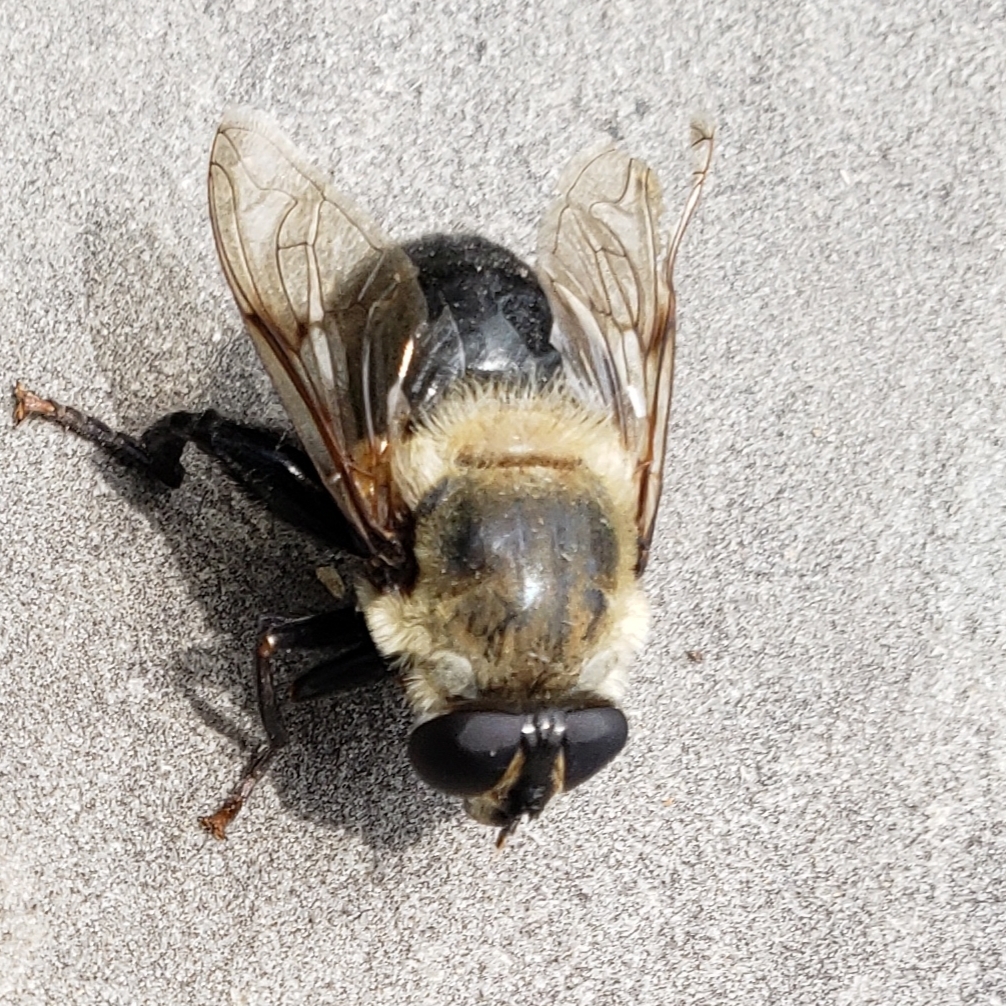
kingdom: Animalia
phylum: Arthropoda
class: Insecta
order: Diptera
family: Syrphidae
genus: Imatisma
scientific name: Imatisma bautias
